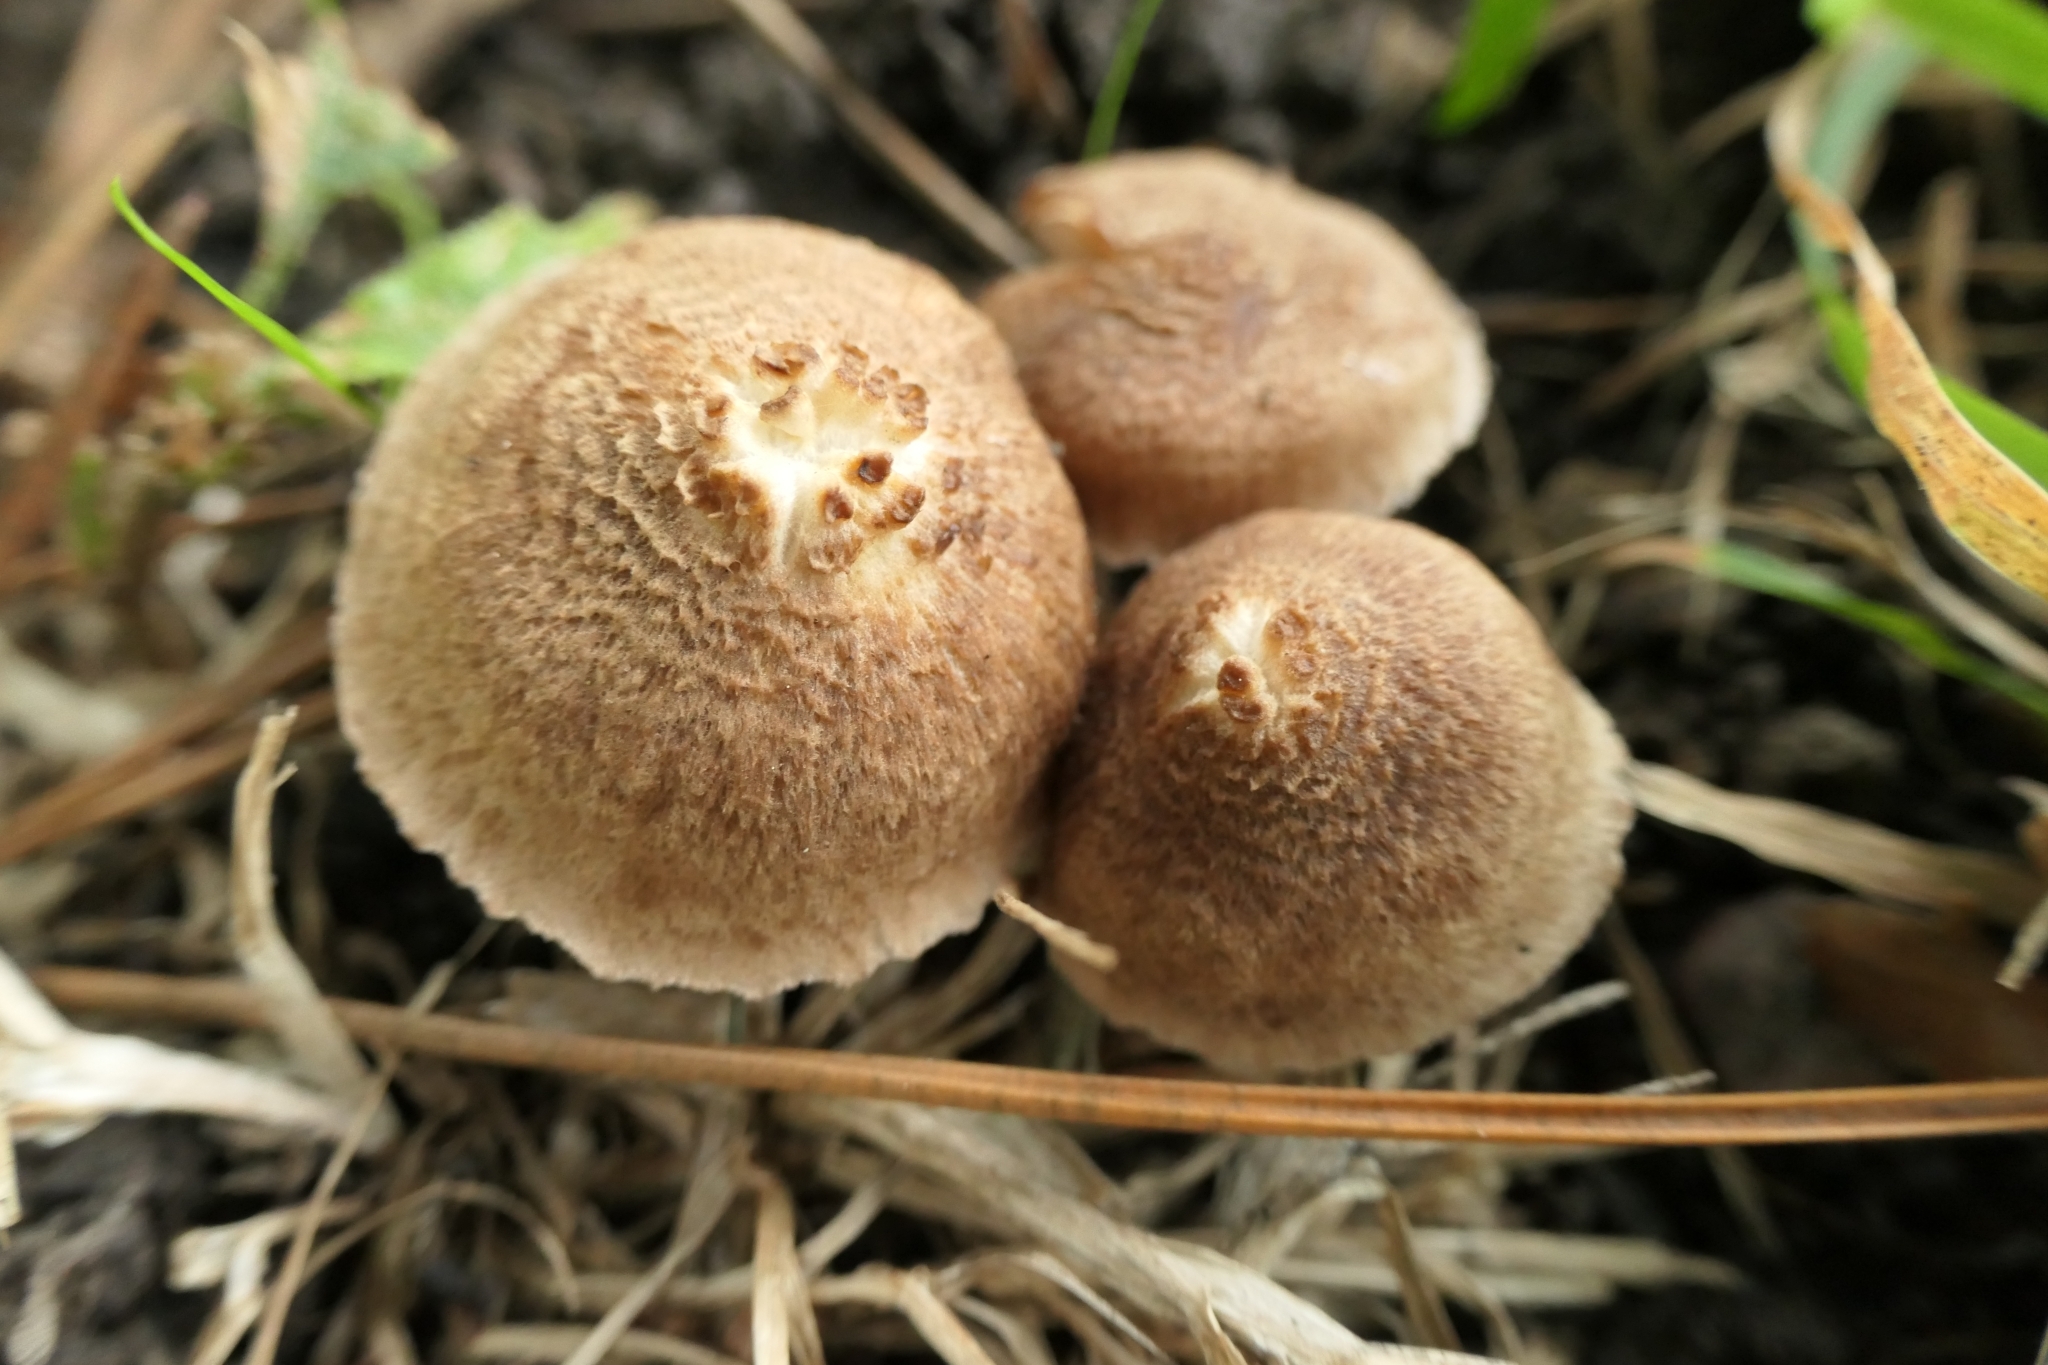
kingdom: Fungi
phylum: Basidiomycota
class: Agaricomycetes
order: Agaricales
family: Inocybaceae
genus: Inocybe
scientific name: Inocybe sindonia
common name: Beige fibrecap
